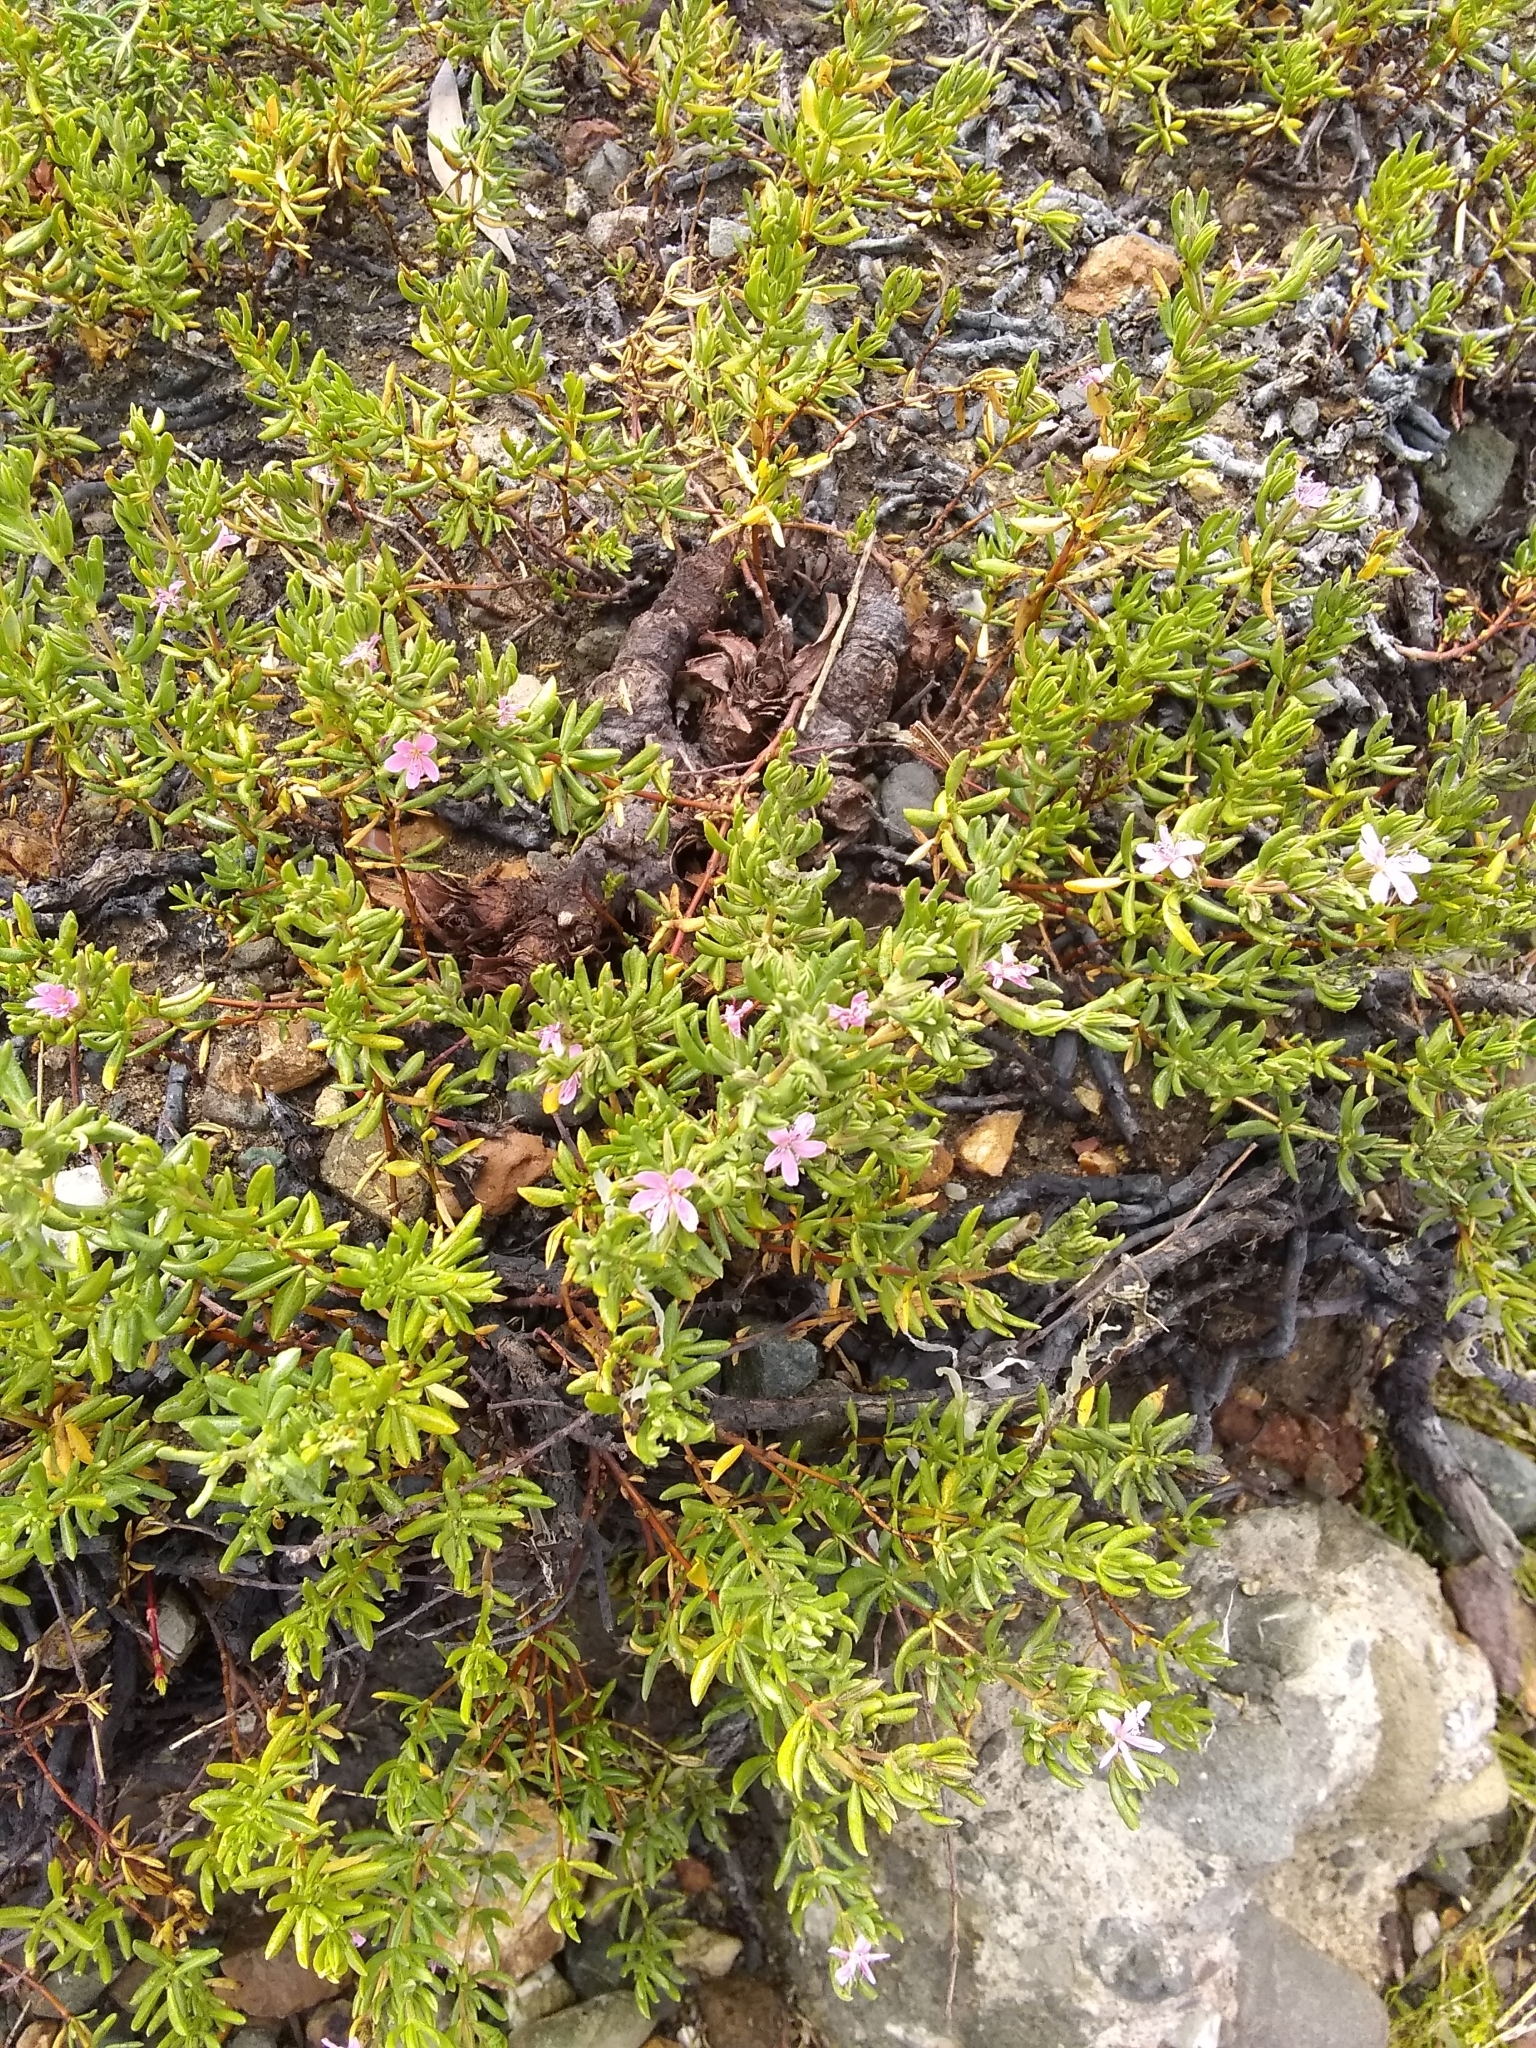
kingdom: Plantae
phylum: Tracheophyta
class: Magnoliopsida
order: Caryophyllales
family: Frankeniaceae
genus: Frankenia
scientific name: Frankenia salina
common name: Alkali seaheath
